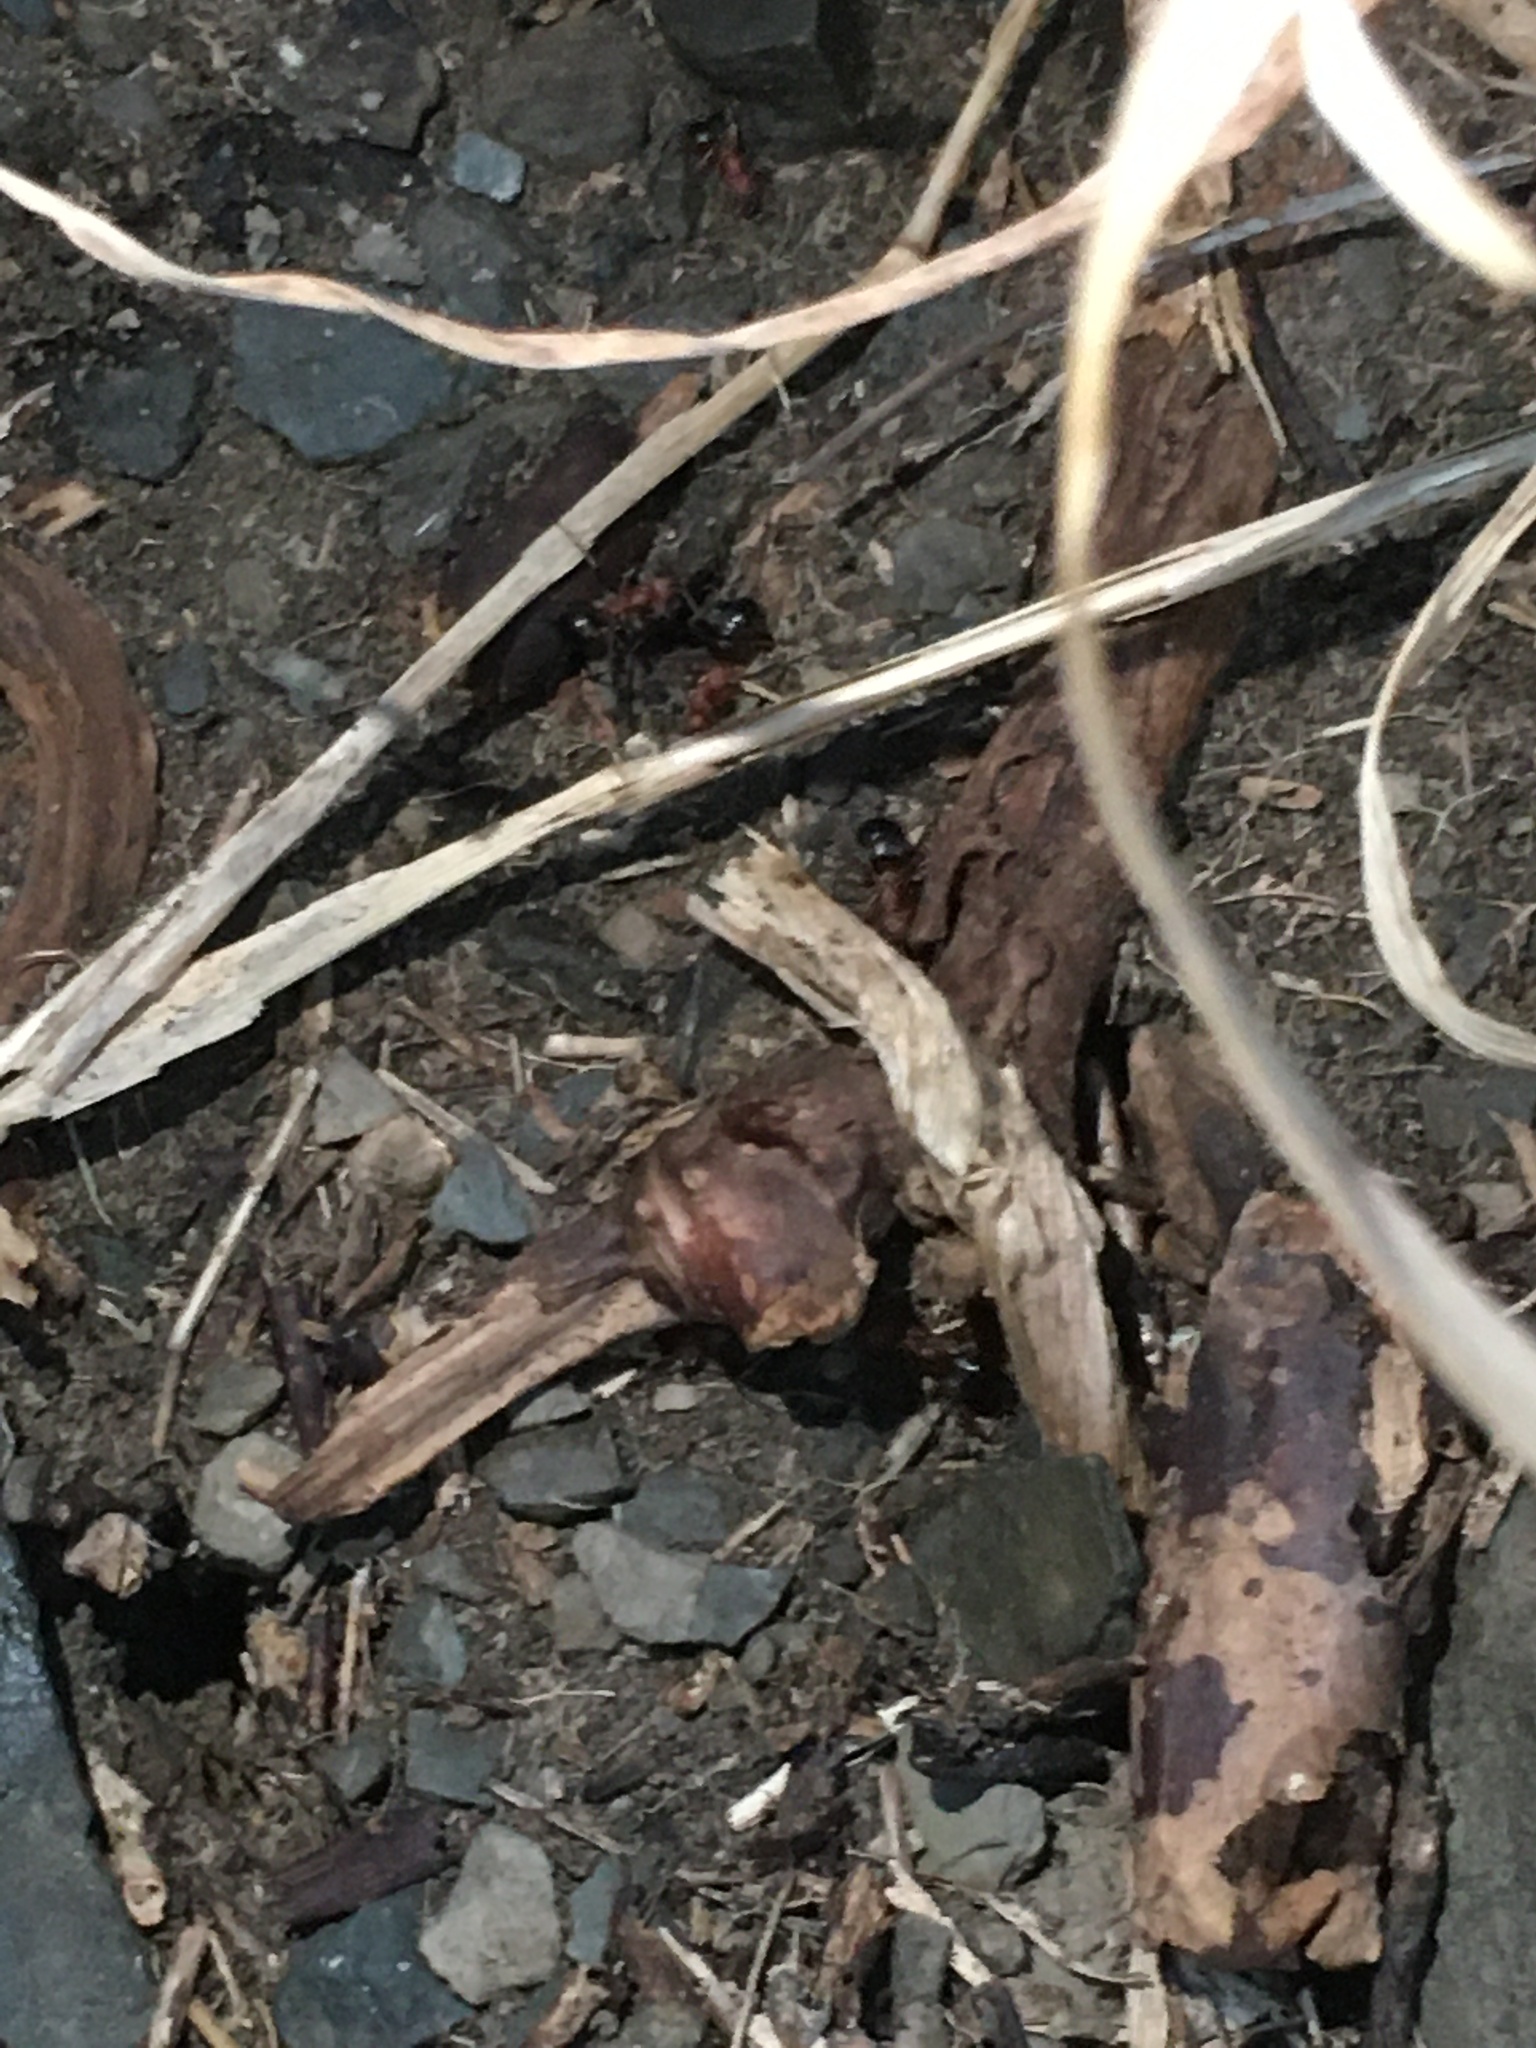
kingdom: Animalia
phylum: Arthropoda
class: Insecta
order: Hymenoptera
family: Formicidae
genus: Formica
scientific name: Formica
